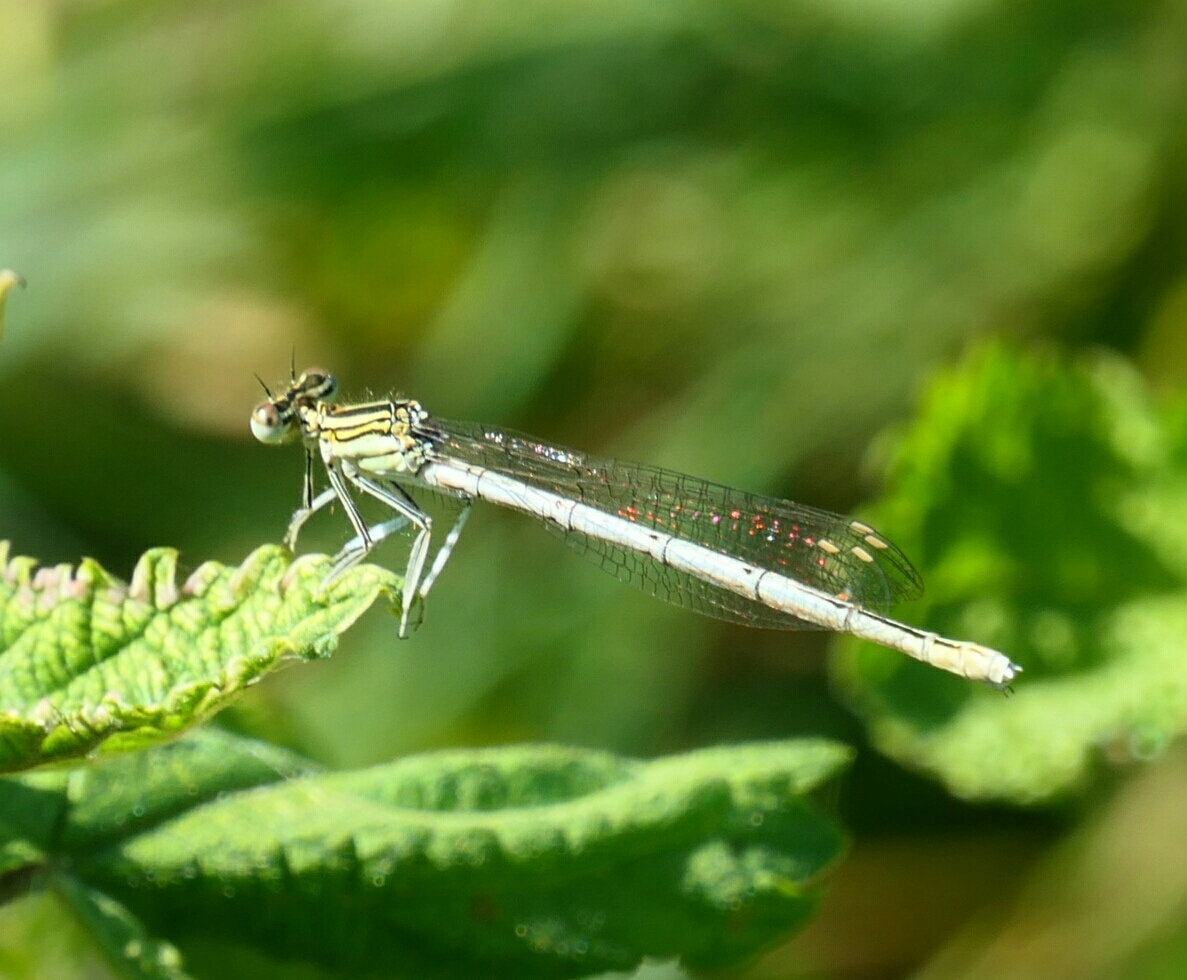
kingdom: Animalia
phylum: Arthropoda
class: Insecta
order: Odonata
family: Platycnemididae
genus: Platycnemis
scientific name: Platycnemis pennipes
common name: White-legged damselfly
